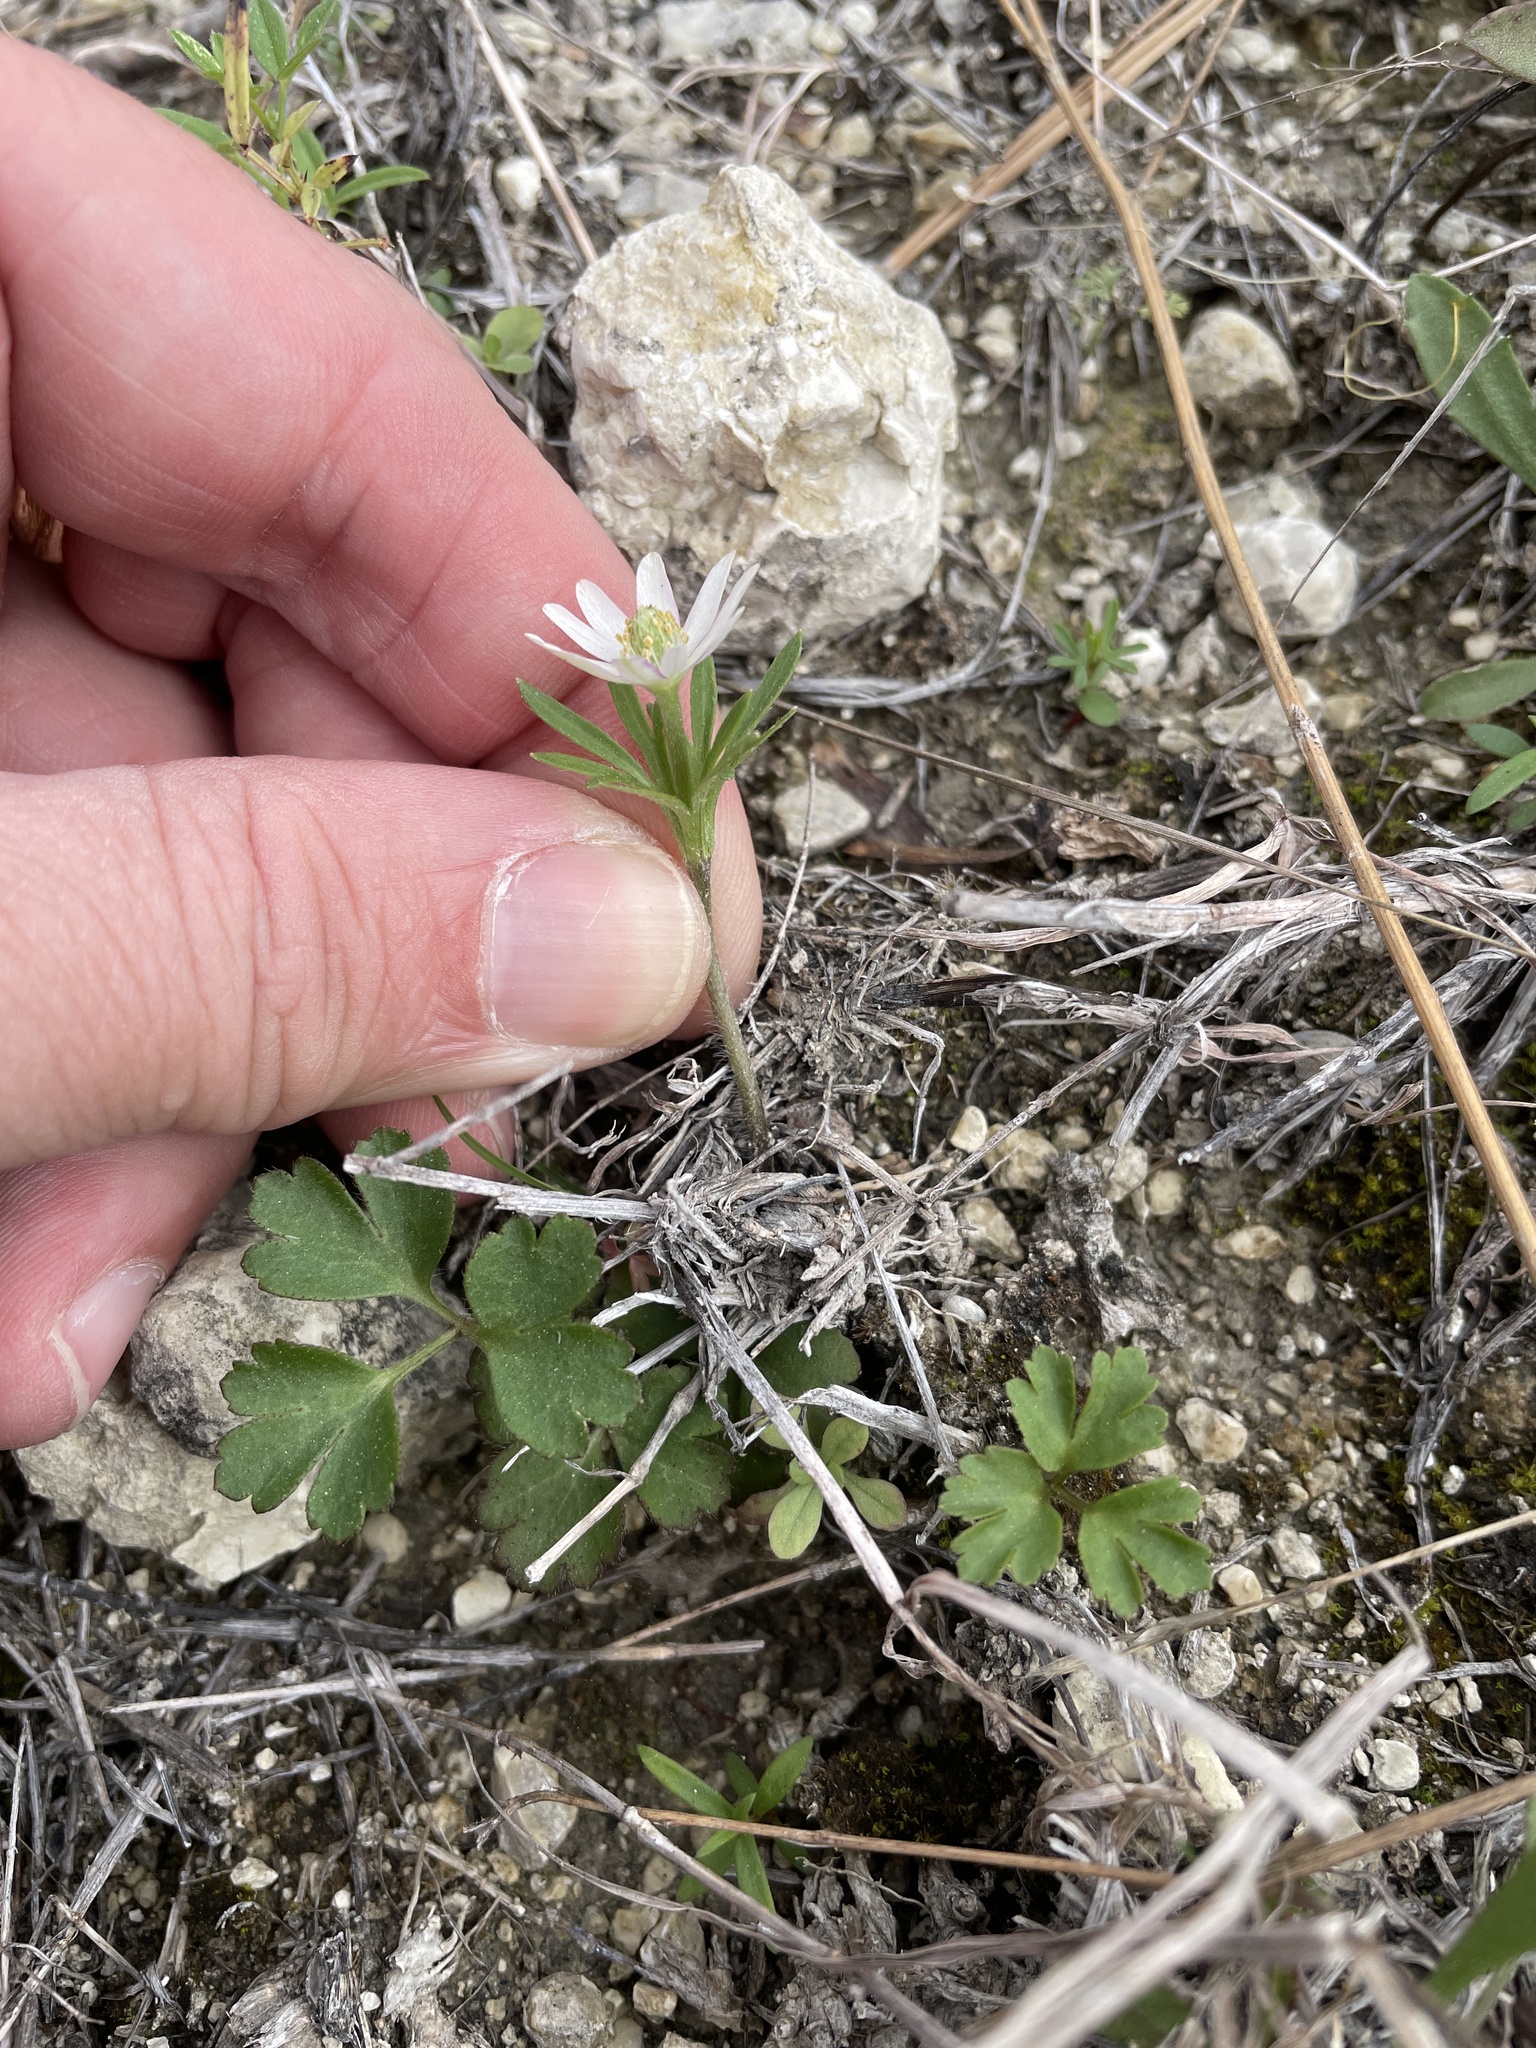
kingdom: Plantae
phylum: Tracheophyta
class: Magnoliopsida
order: Ranunculales
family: Ranunculaceae
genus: Anemone
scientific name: Anemone berlandieri
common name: Ten-petal anemone
